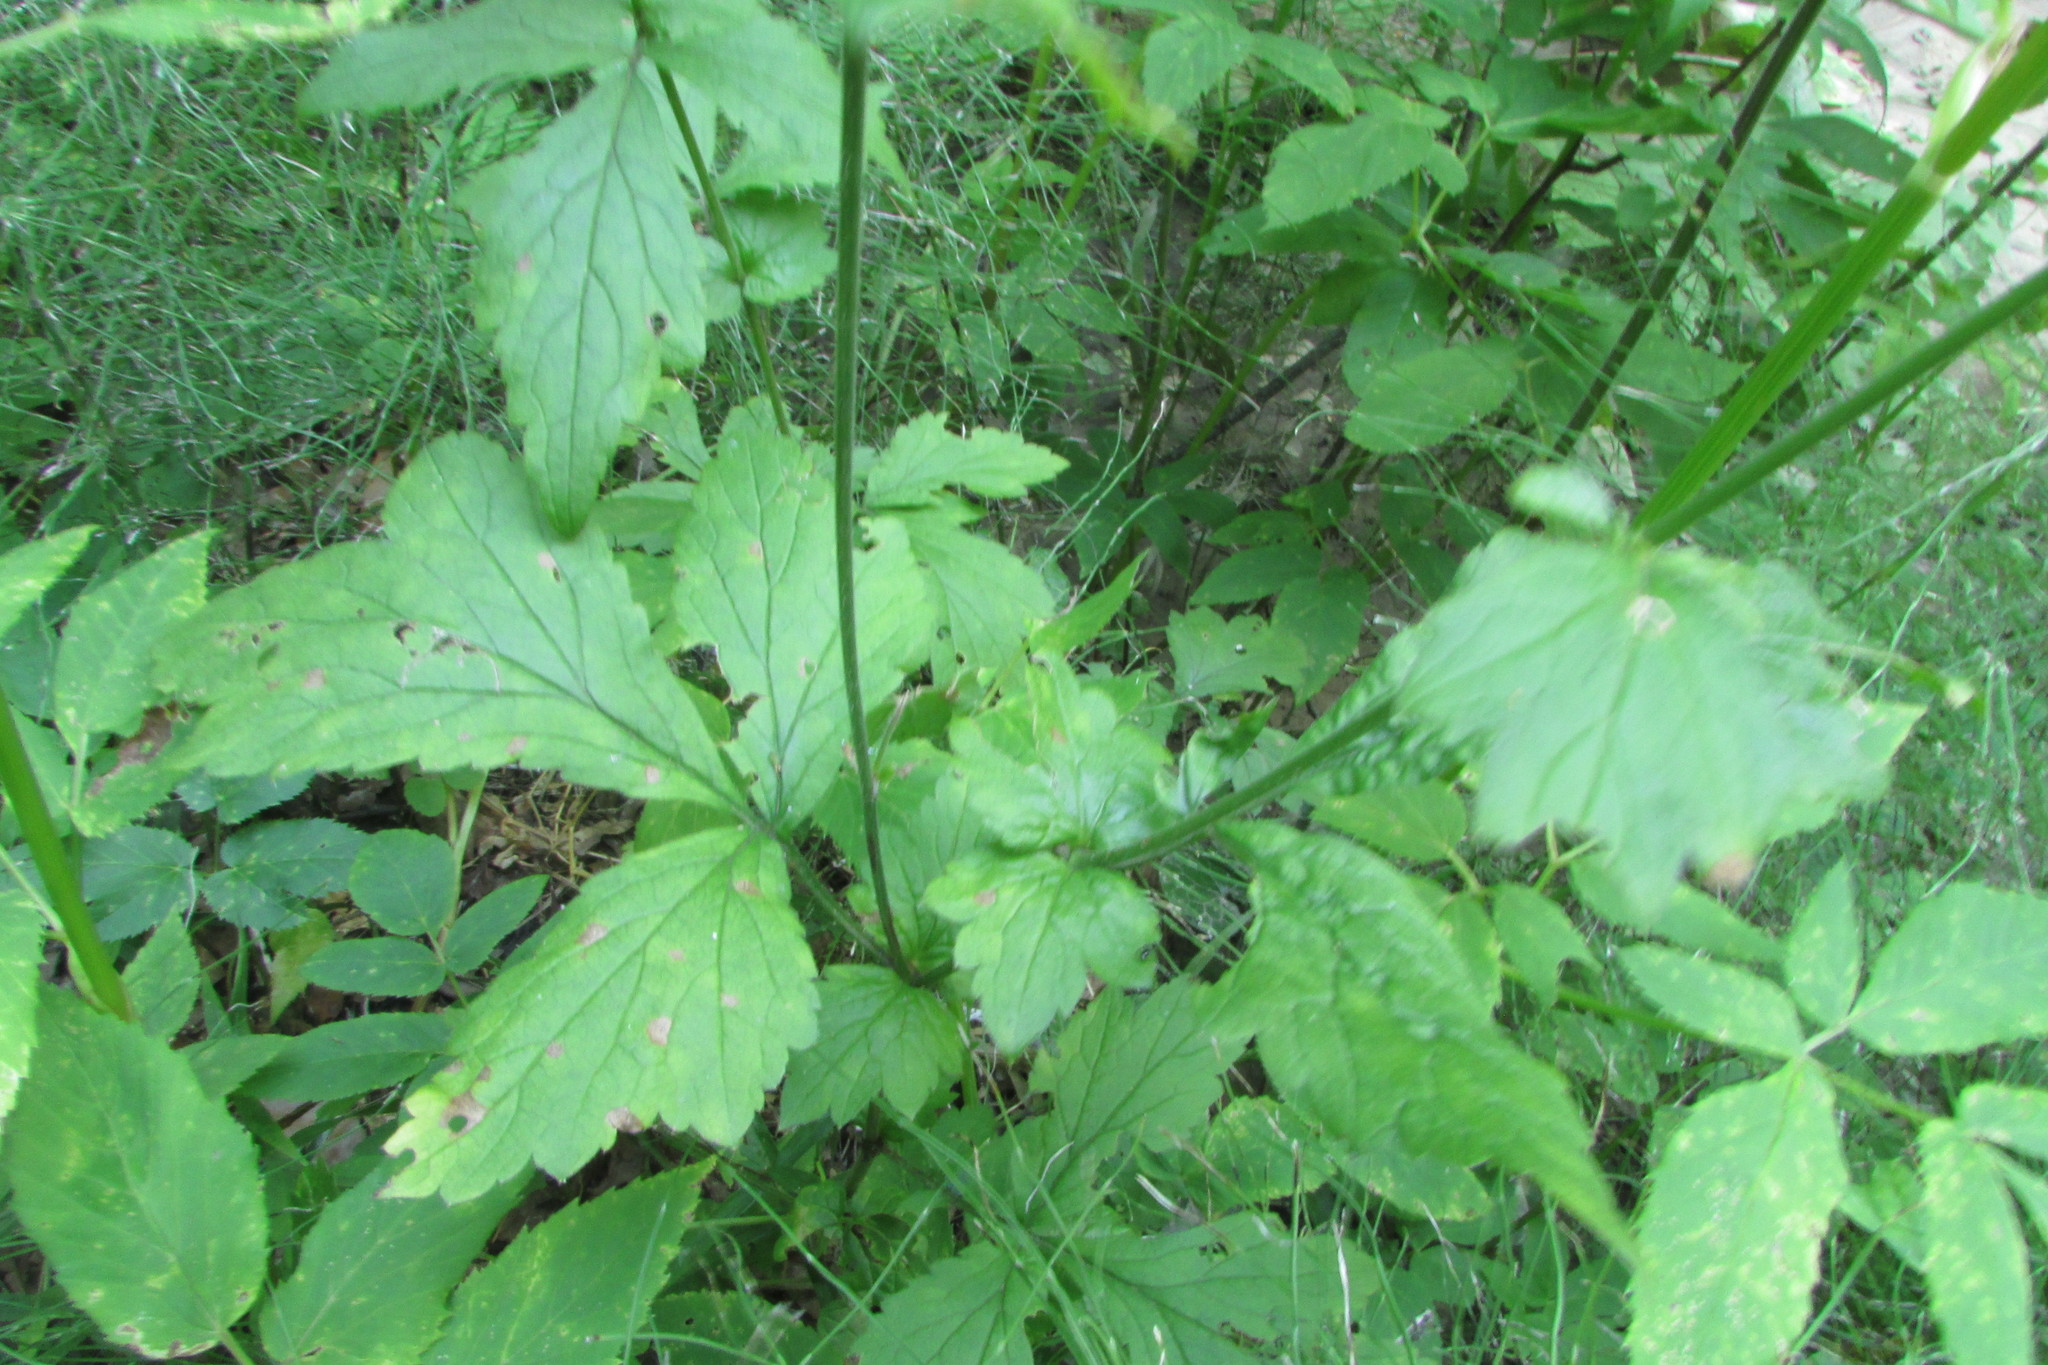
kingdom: Plantae
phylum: Tracheophyta
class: Magnoliopsida
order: Rosales
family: Rosaceae
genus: Geum
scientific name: Geum urbanum
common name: Wood avens
